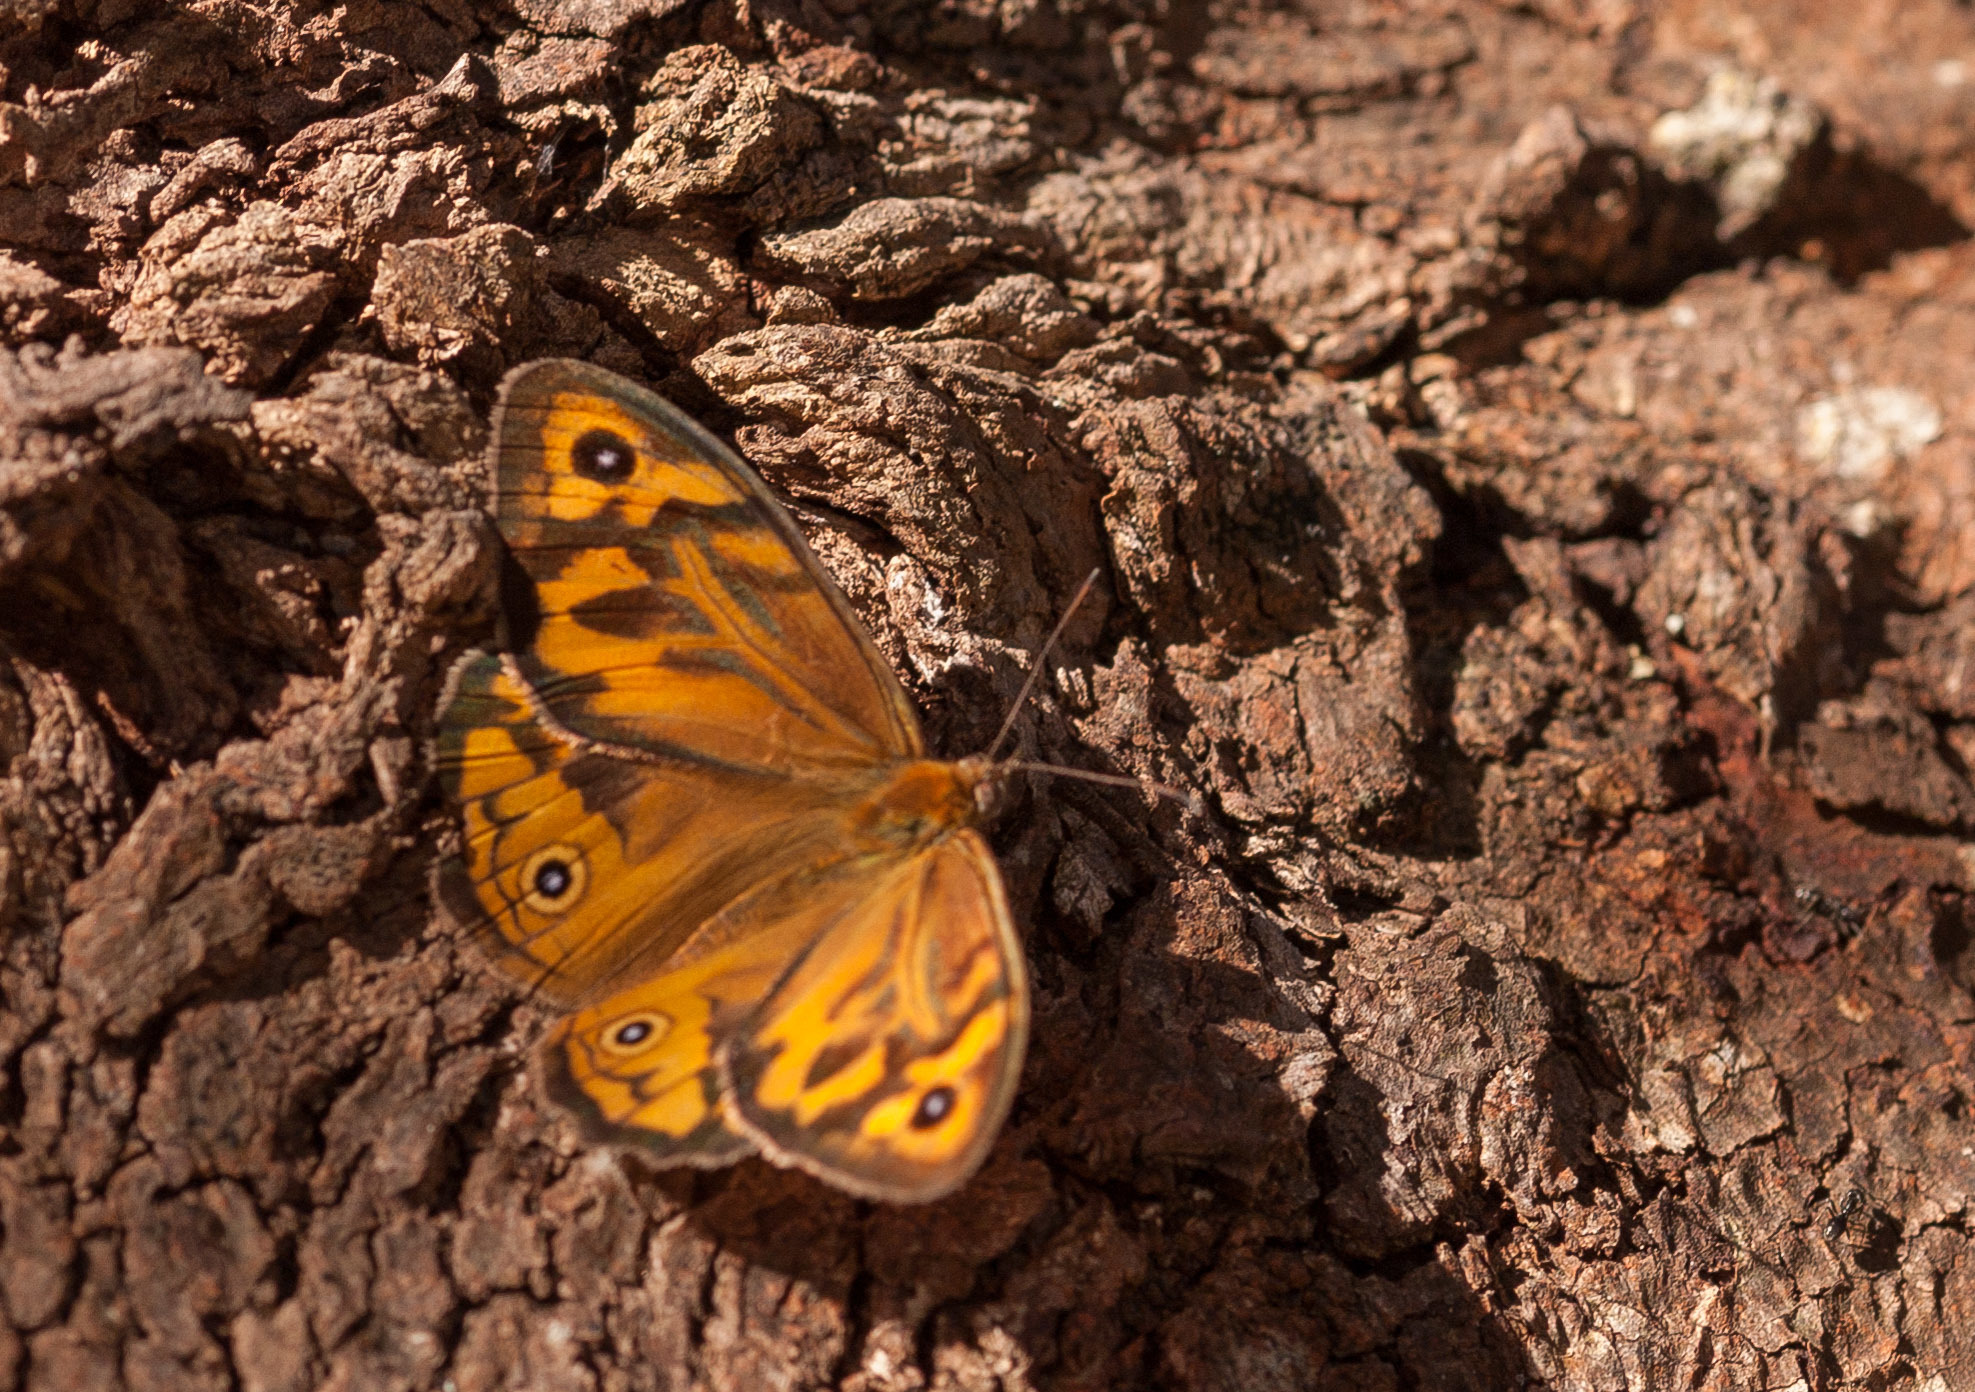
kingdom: Animalia
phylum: Arthropoda
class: Insecta
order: Lepidoptera
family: Nymphalidae
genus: Heteronympha
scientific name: Heteronympha merope
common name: Common brown
